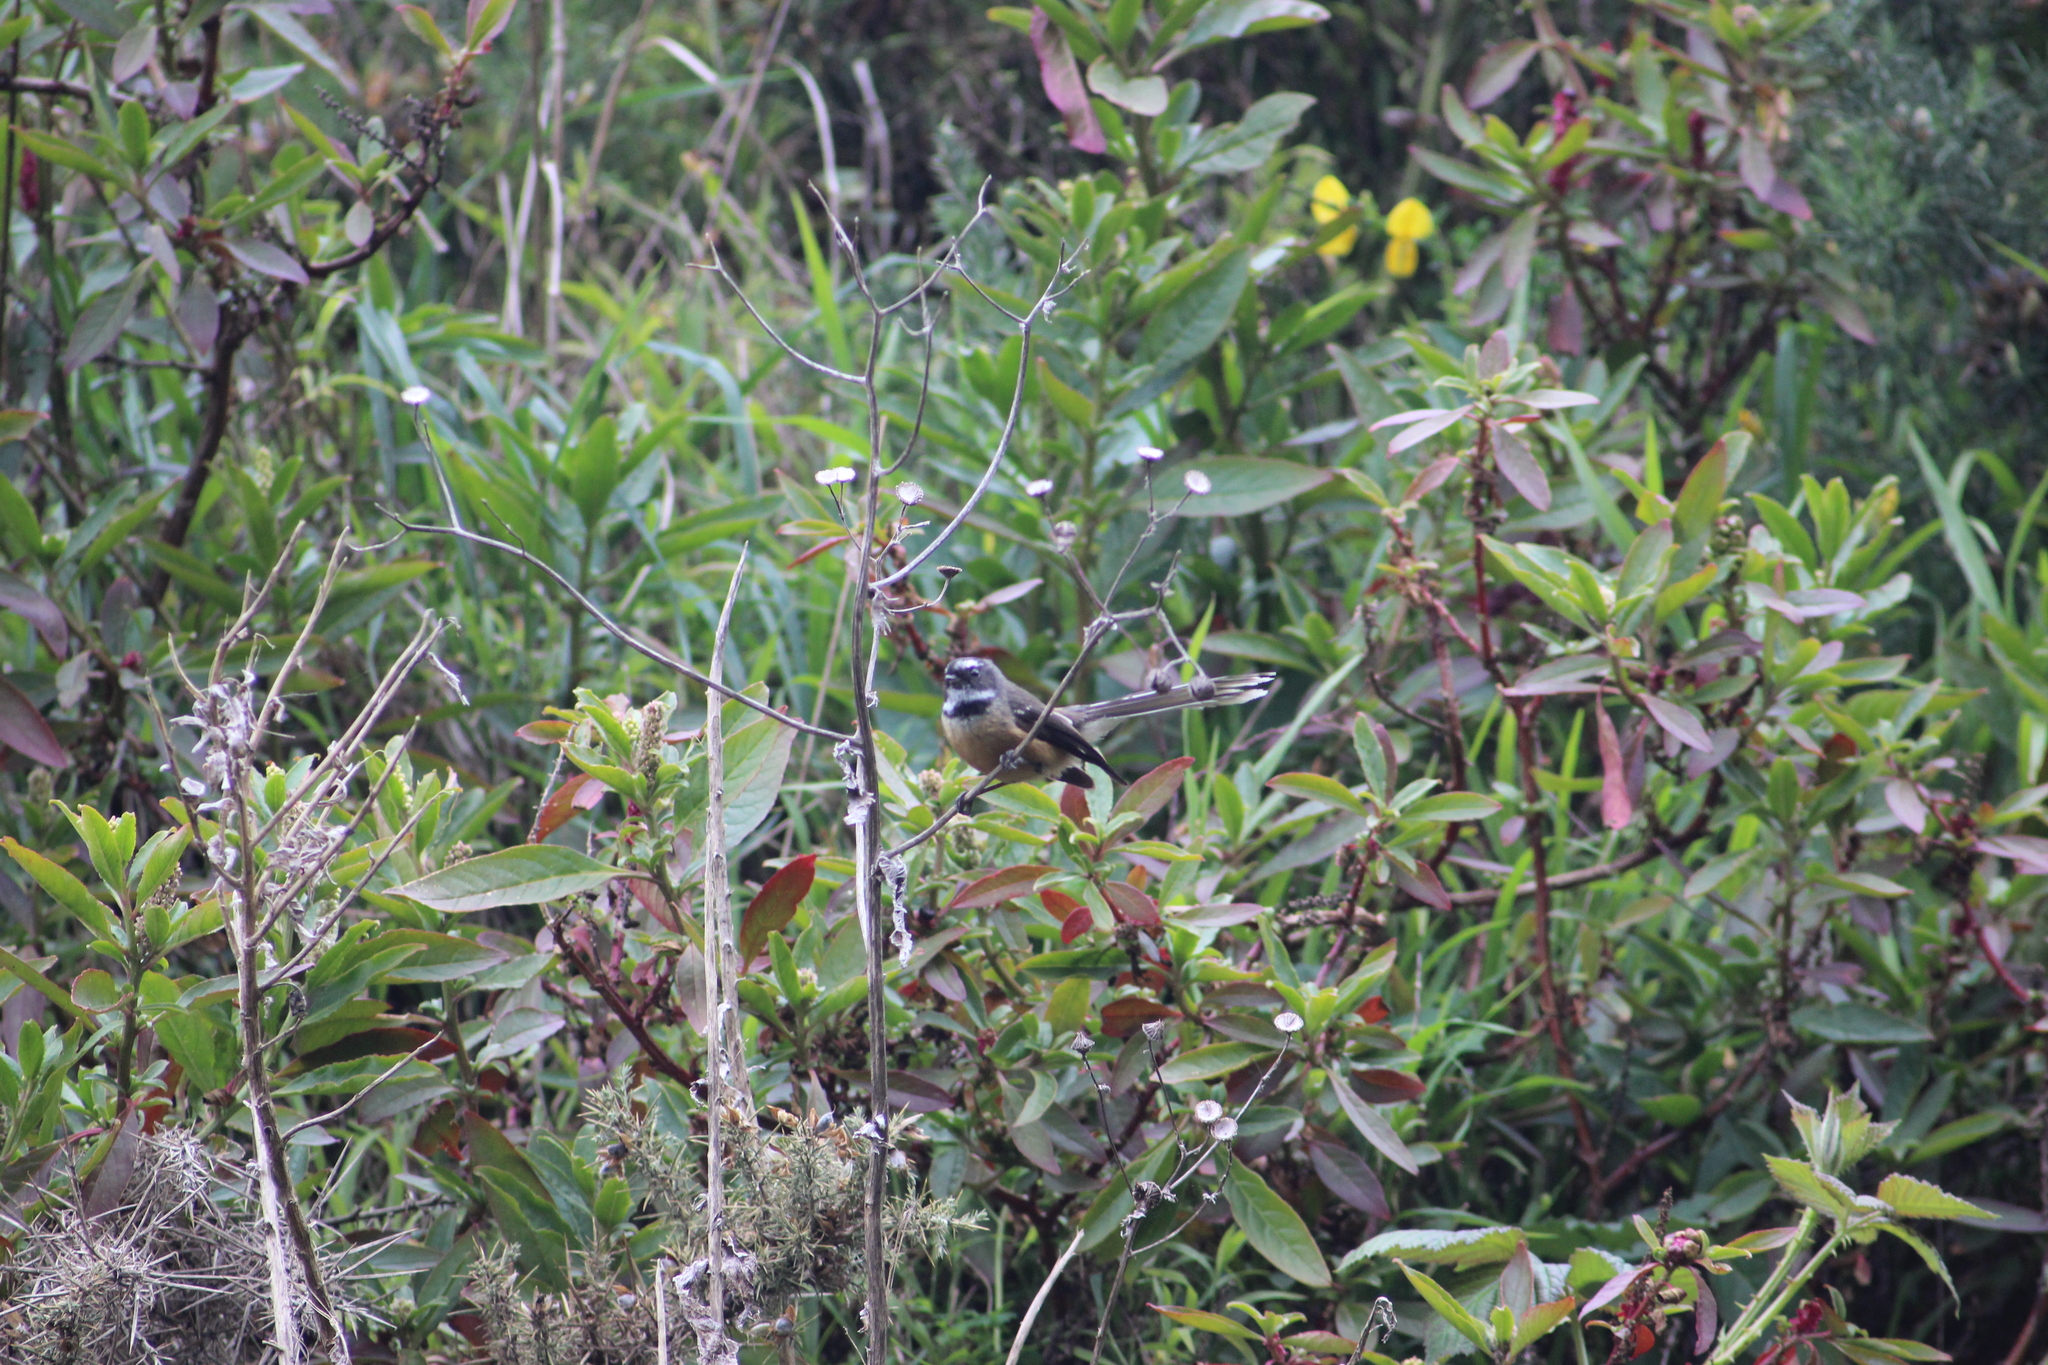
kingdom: Animalia
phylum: Chordata
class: Aves
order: Passeriformes
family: Rhipiduridae
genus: Rhipidura
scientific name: Rhipidura fuliginosa
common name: New zealand fantail
